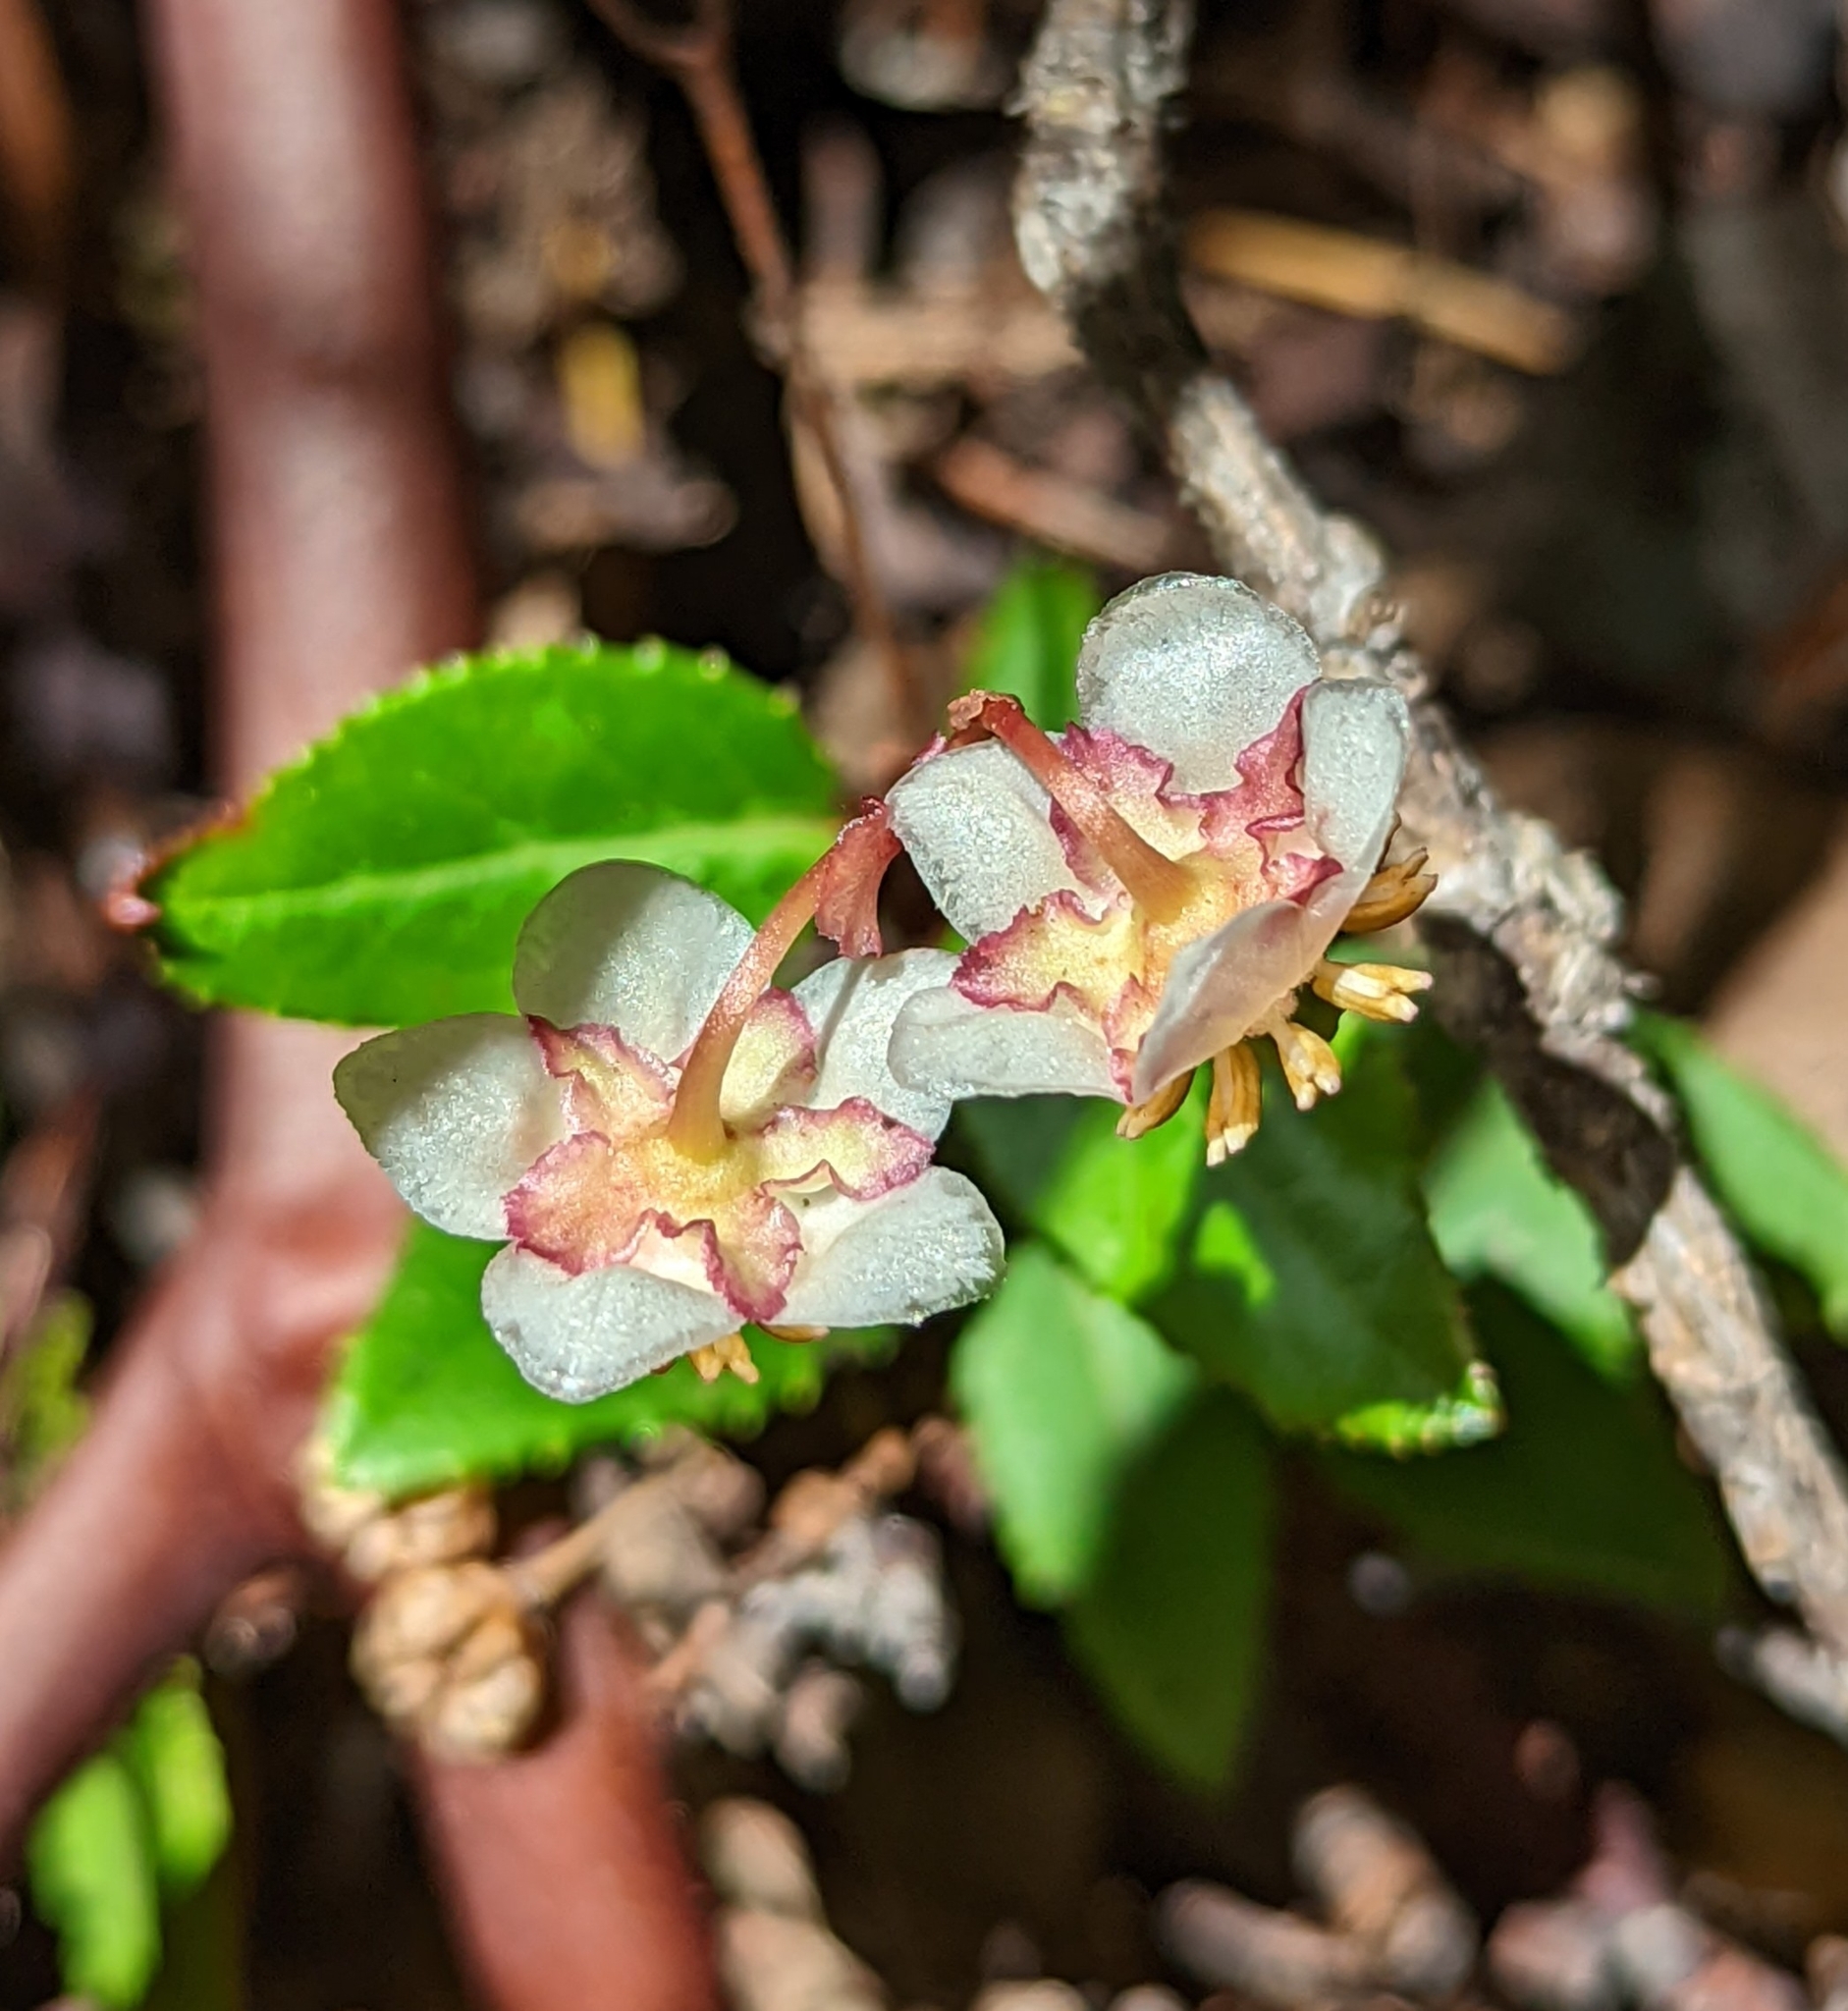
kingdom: Plantae
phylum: Tracheophyta
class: Magnoliopsida
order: Ericales
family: Ericaceae
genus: Chimaphila
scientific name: Chimaphila menziesii
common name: Menzies' pipsissewa
